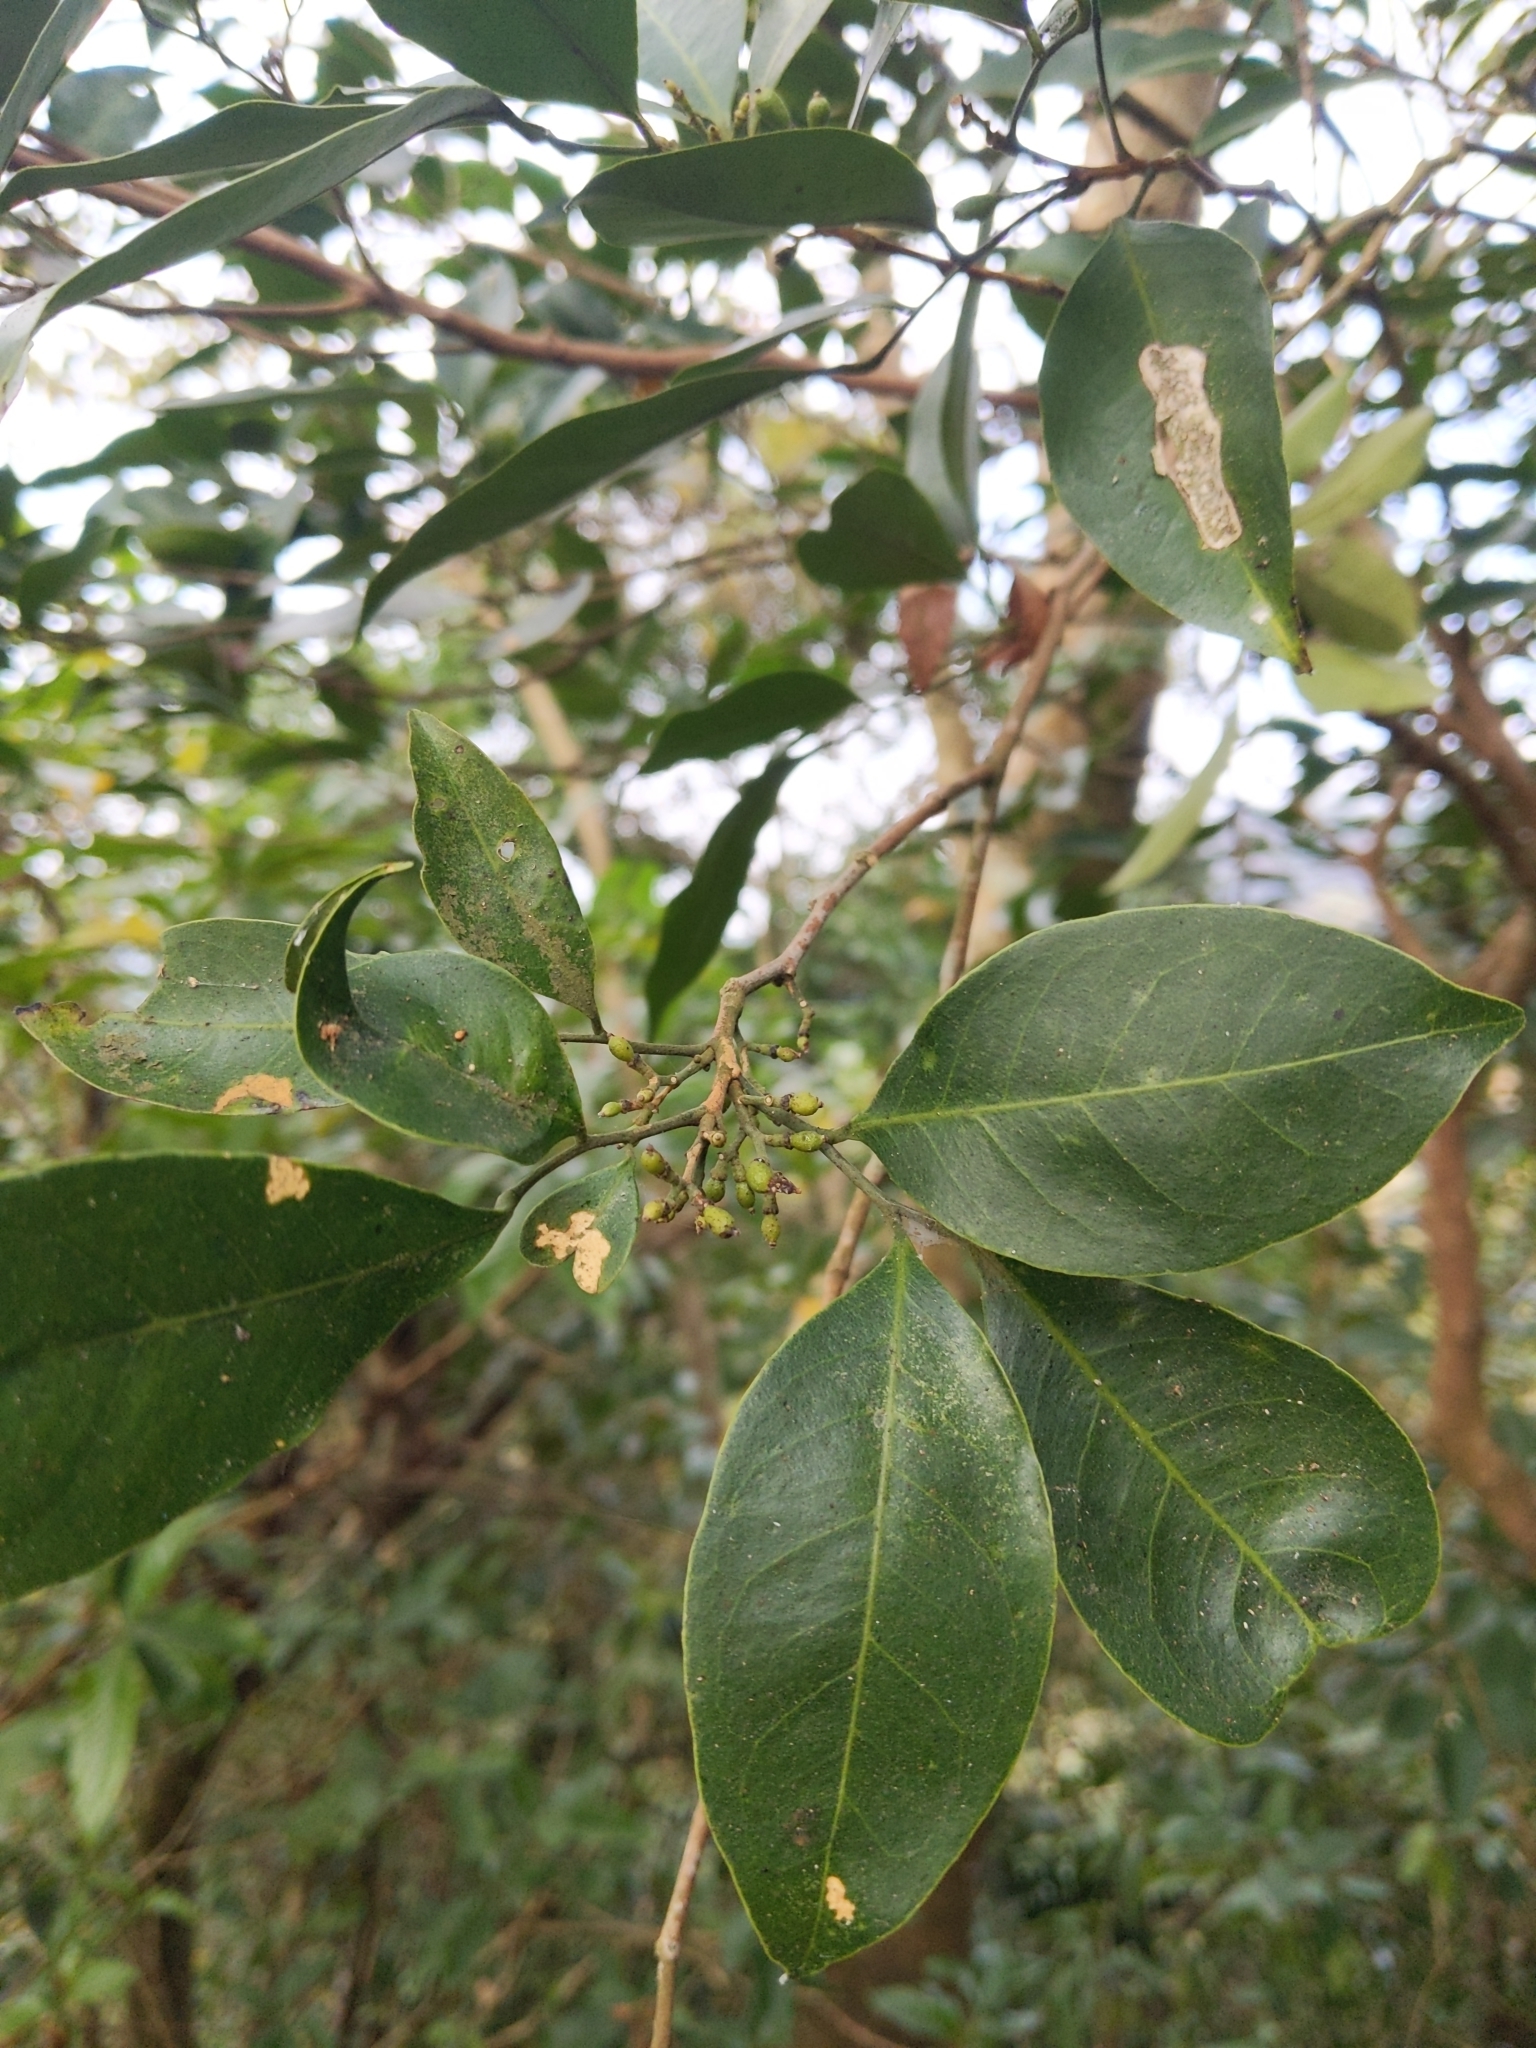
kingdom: Plantae
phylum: Tracheophyta
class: Magnoliopsida
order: Sapindales
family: Rutaceae
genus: Glycosmis
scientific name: Glycosmis parviflora
